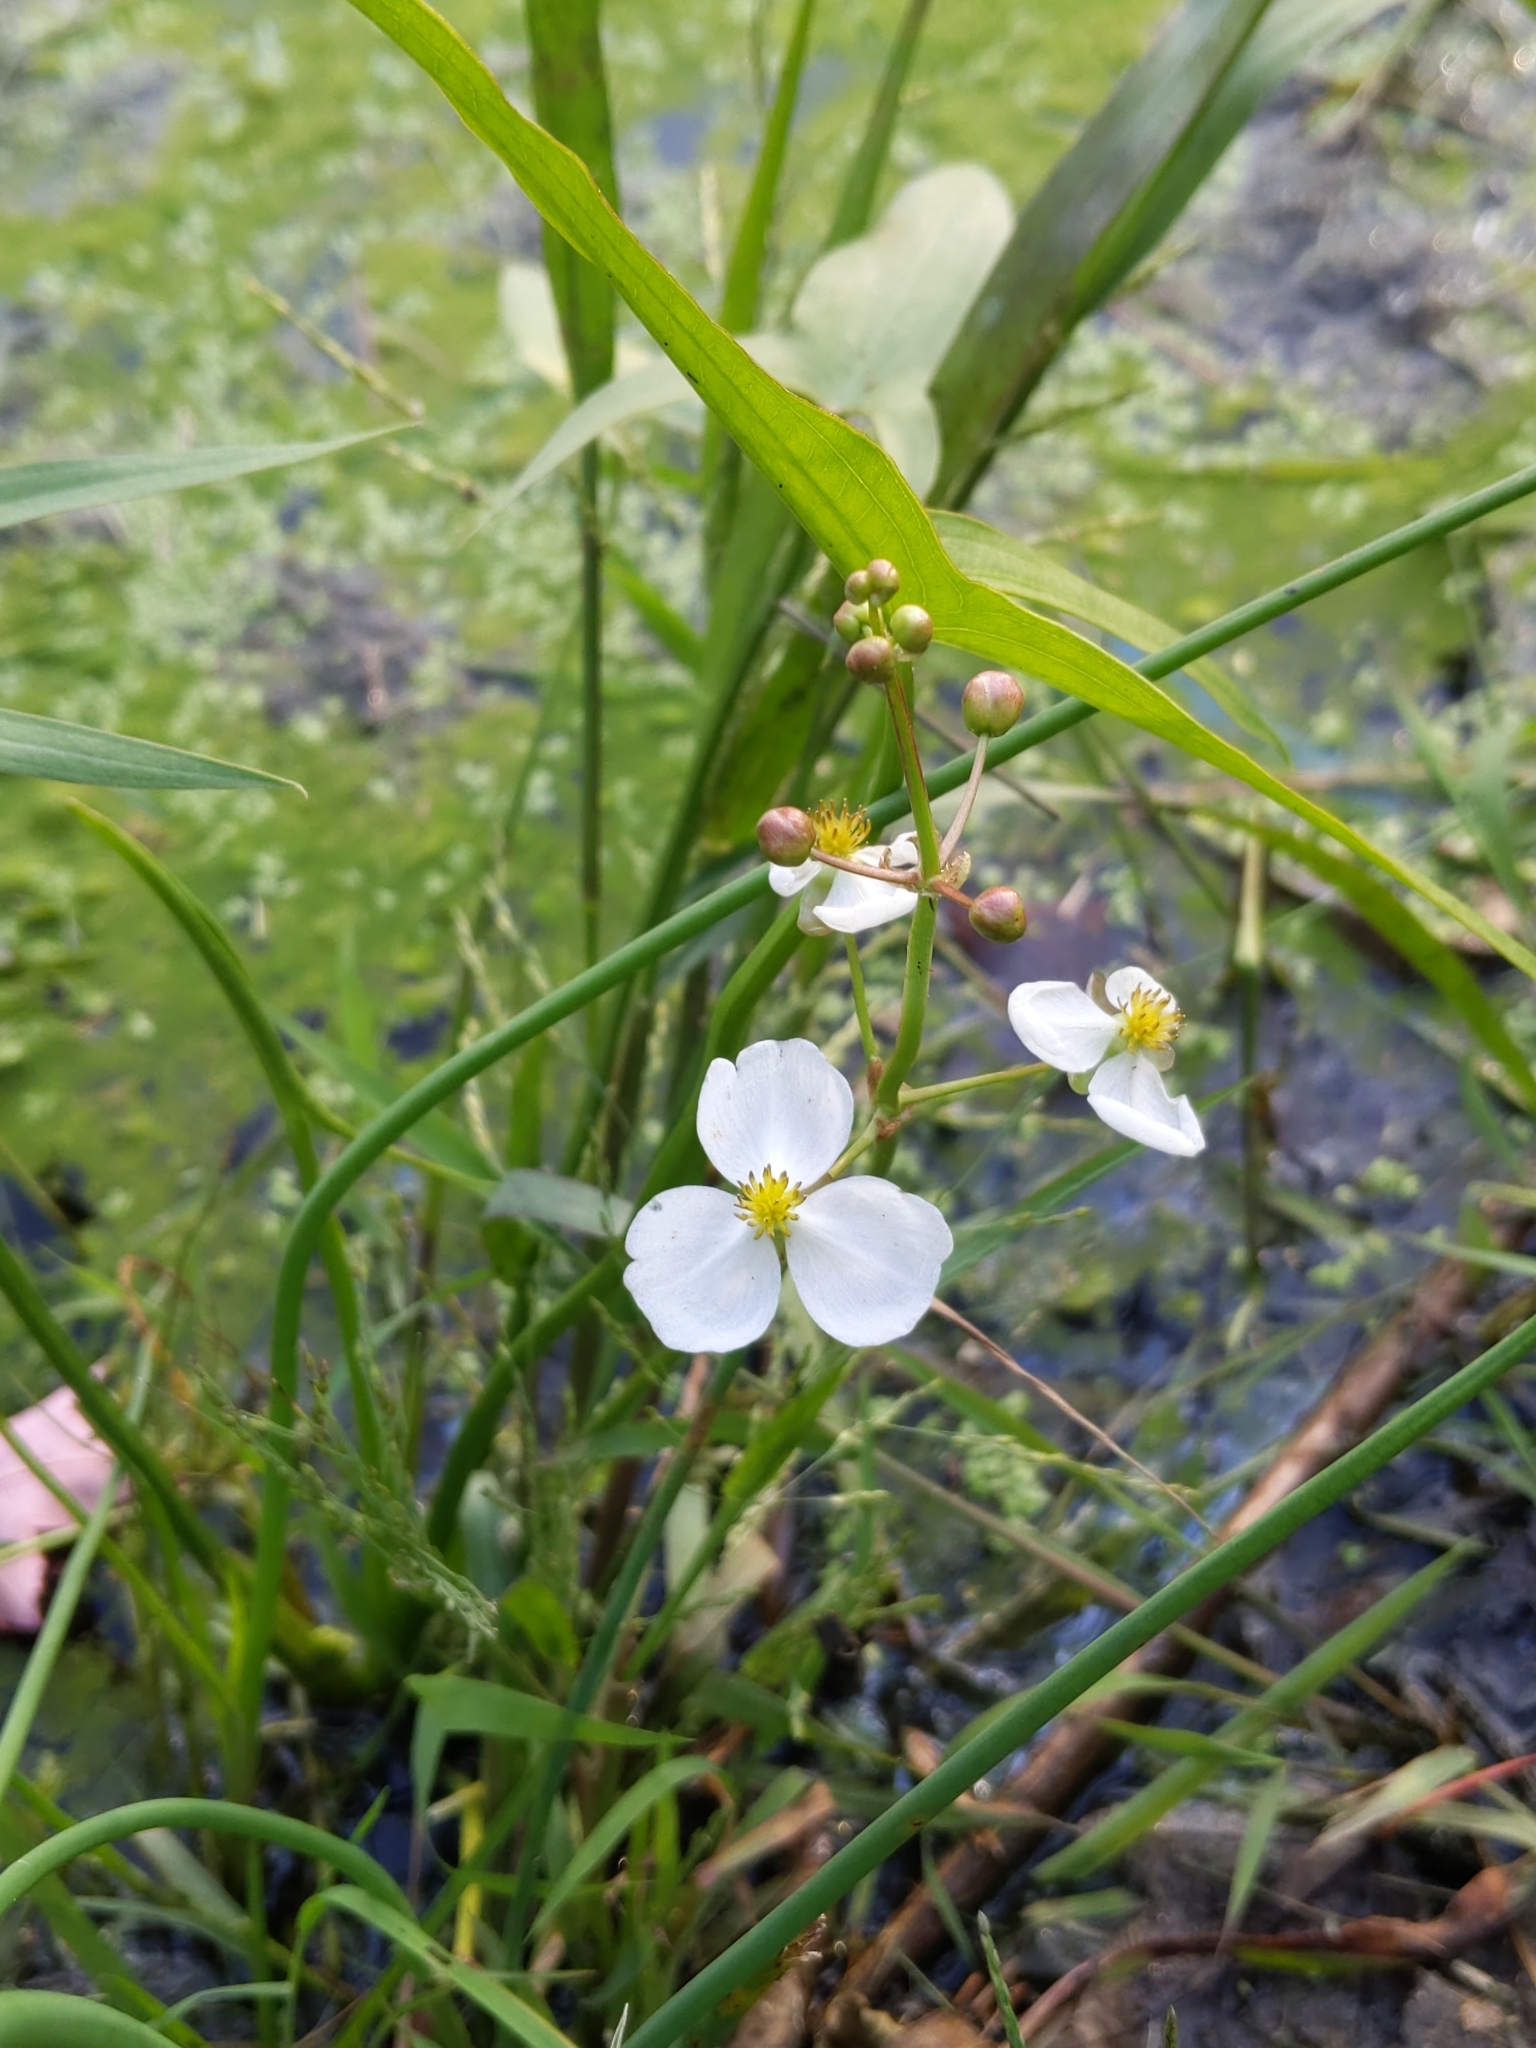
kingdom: Plantae
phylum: Tracheophyta
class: Liliopsida
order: Alismatales
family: Alismataceae
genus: Sagittaria
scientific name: Sagittaria latifolia
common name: Duck-potato
